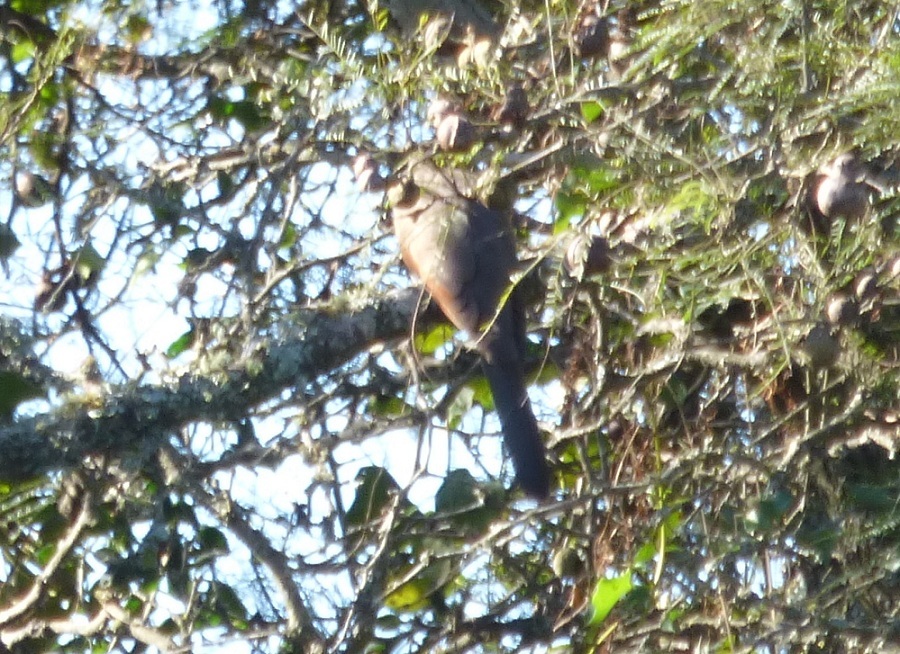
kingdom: Animalia
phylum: Chordata
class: Aves
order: Cuculiformes
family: Cuculidae
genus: Coccyzus
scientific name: Coccyzus americanus
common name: Yellow-billed cuckoo
